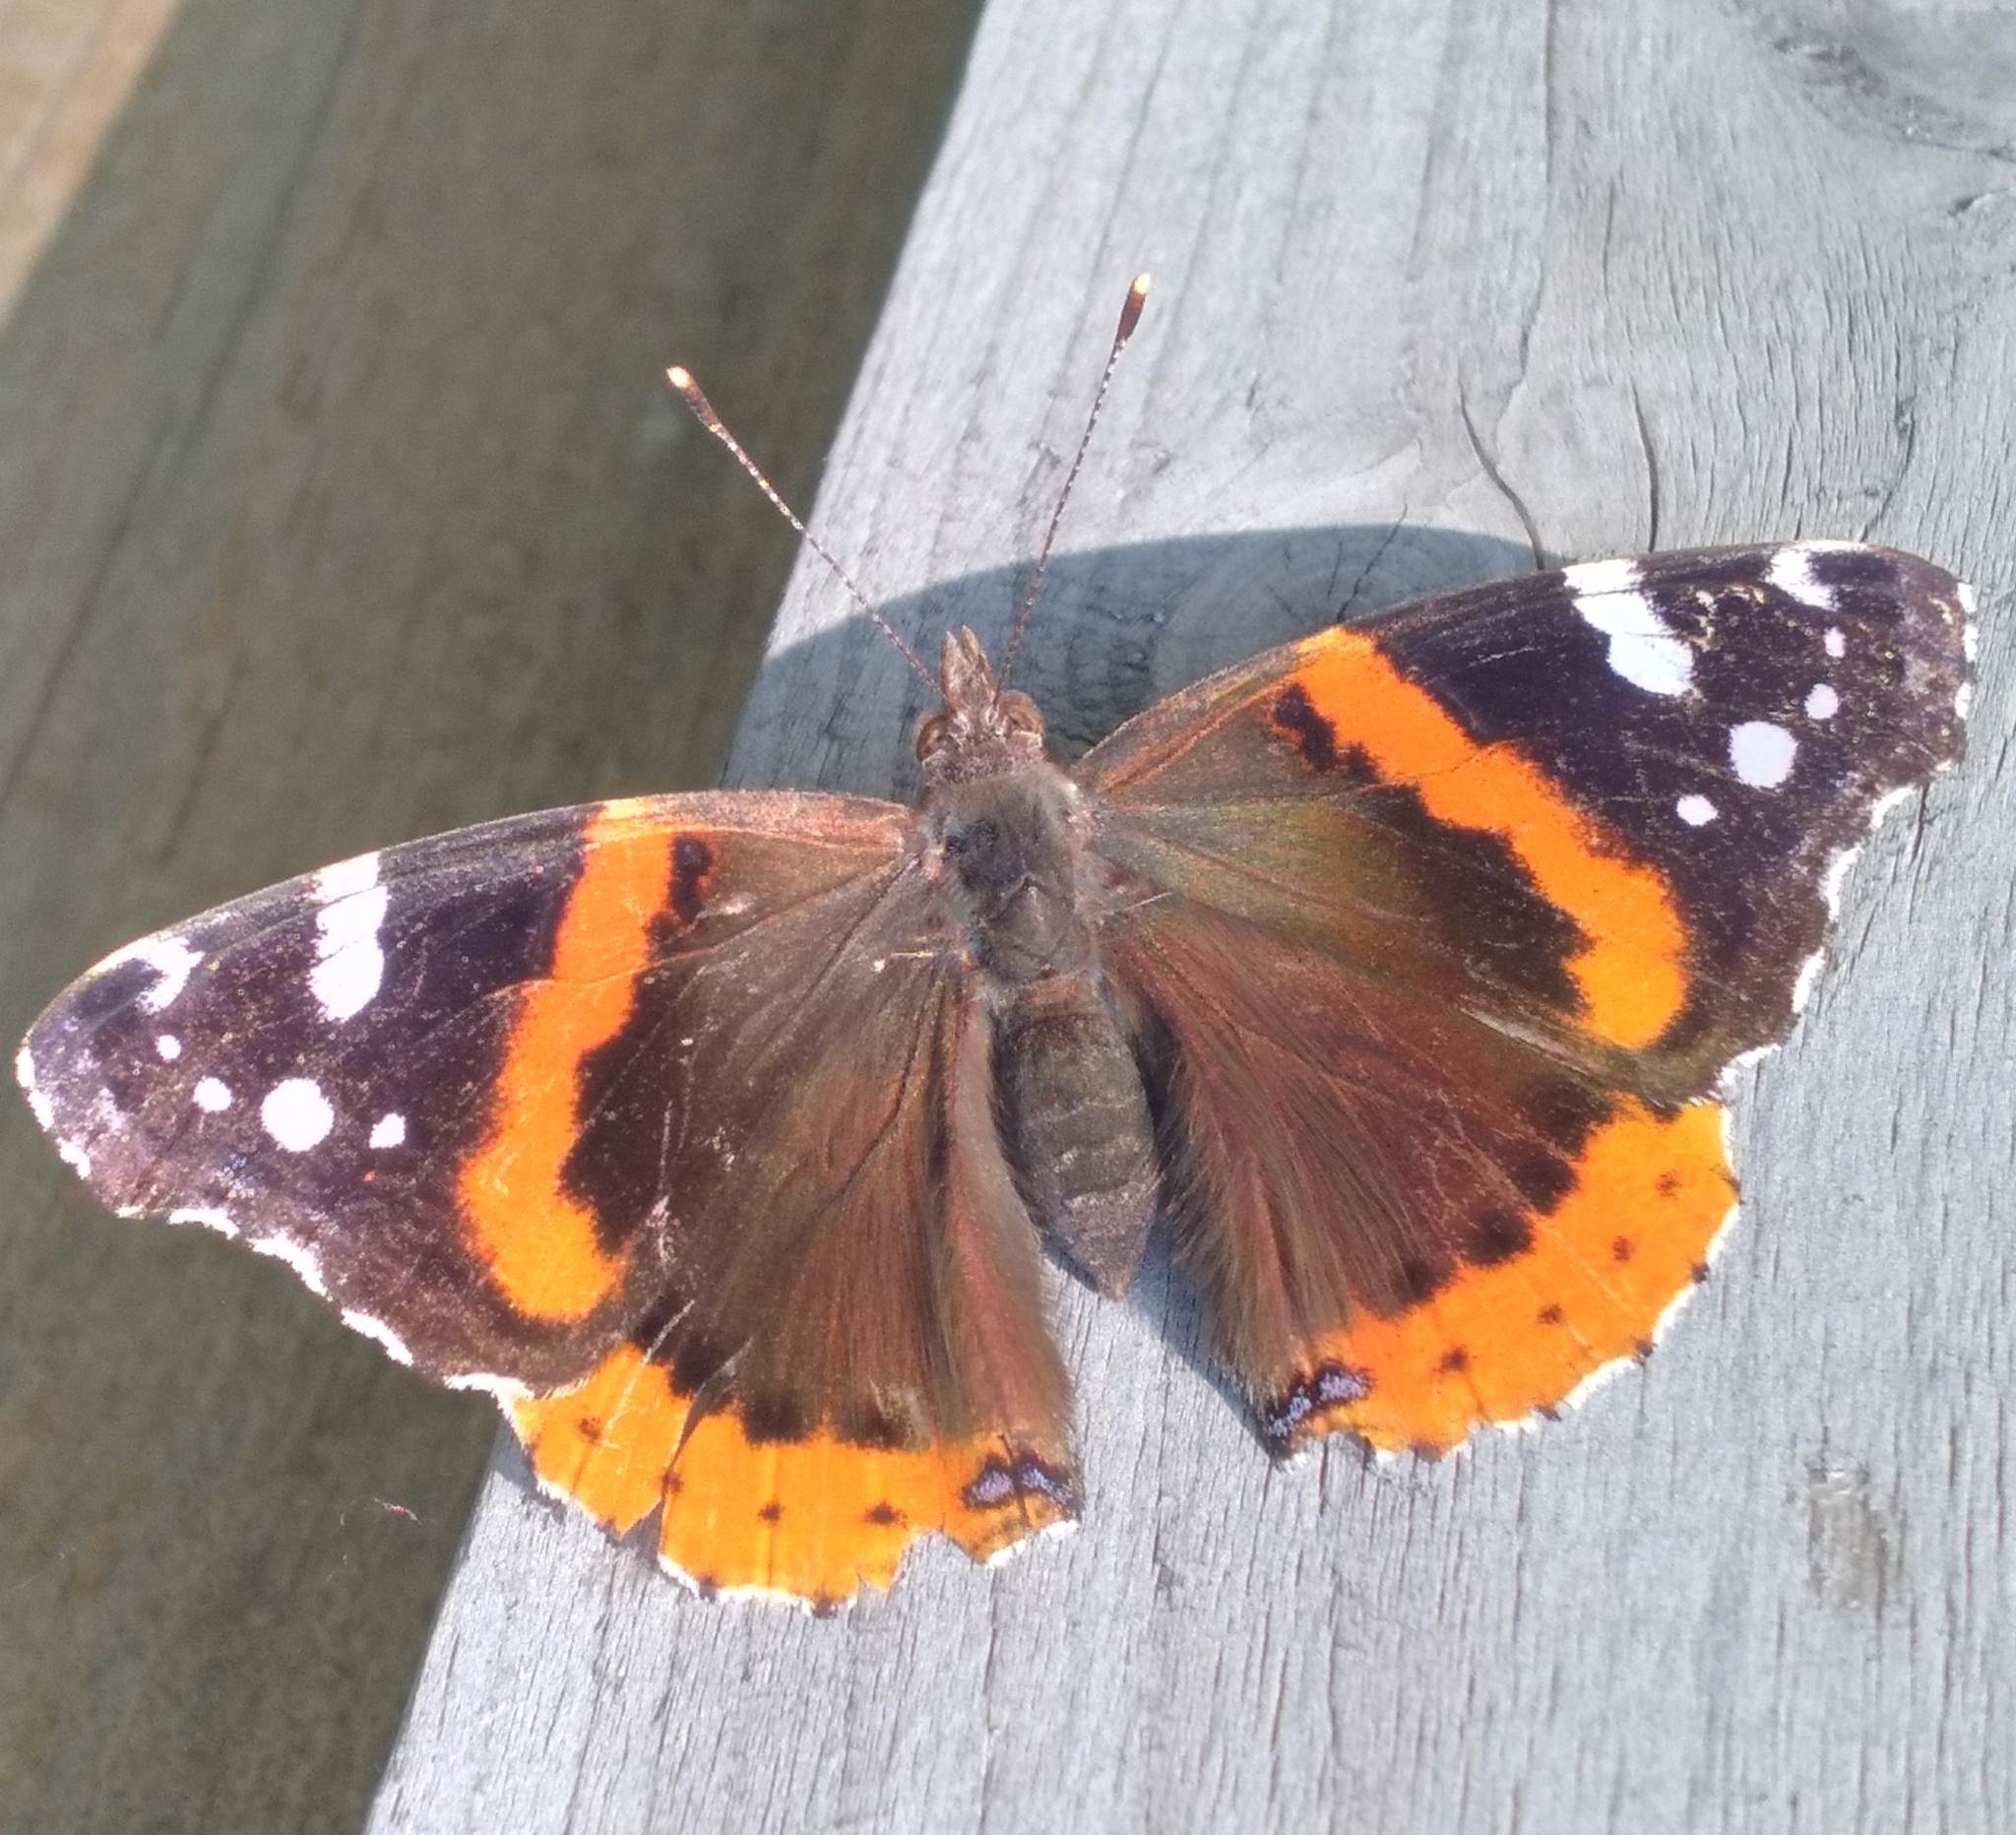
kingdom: Animalia
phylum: Arthropoda
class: Insecta
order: Lepidoptera
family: Nymphalidae
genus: Vanessa
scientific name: Vanessa atalanta
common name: Red admiral
